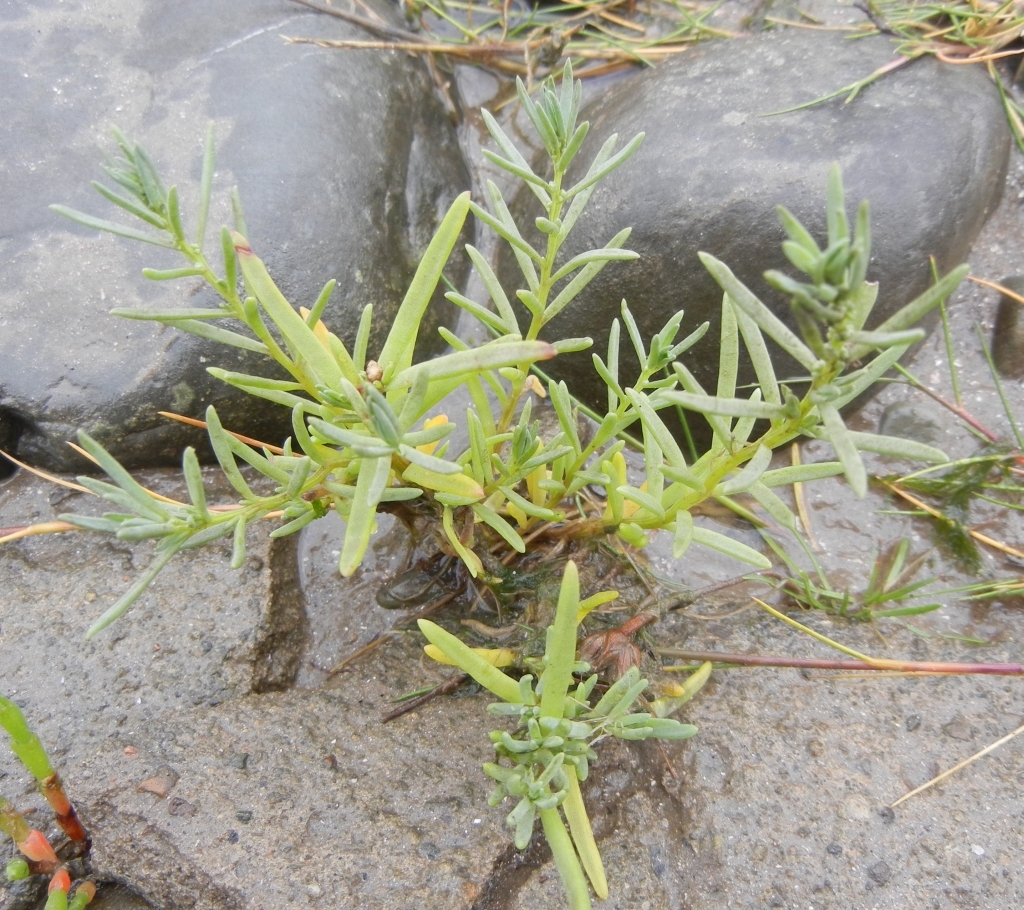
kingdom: Plantae
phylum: Tracheophyta
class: Magnoliopsida
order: Caryophyllales
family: Amaranthaceae
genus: Suaeda
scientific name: Suaeda maritima
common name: Annual sea-blite
